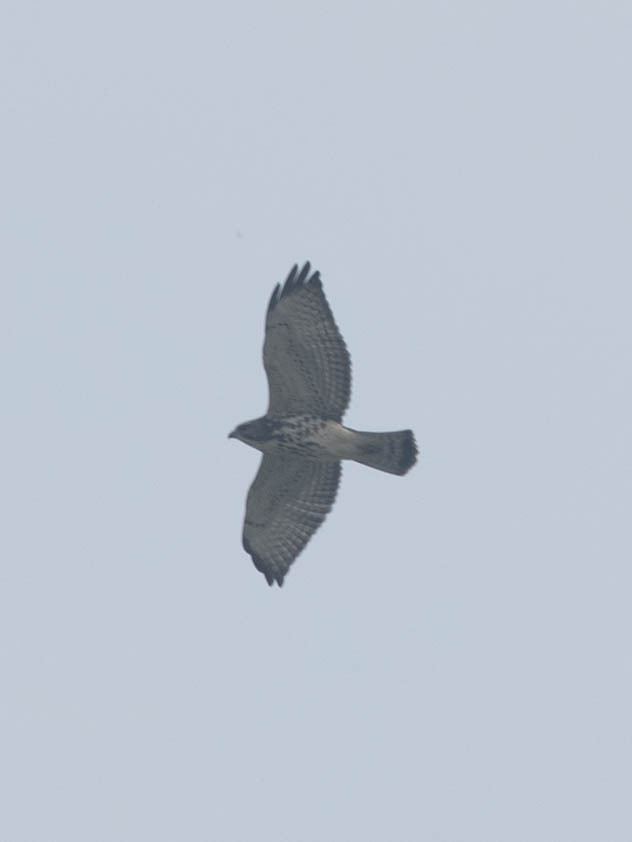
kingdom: Animalia
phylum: Chordata
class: Aves
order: Accipitriformes
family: Accipitridae
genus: Buteo
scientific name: Buteo platypterus
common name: Broad-winged hawk
